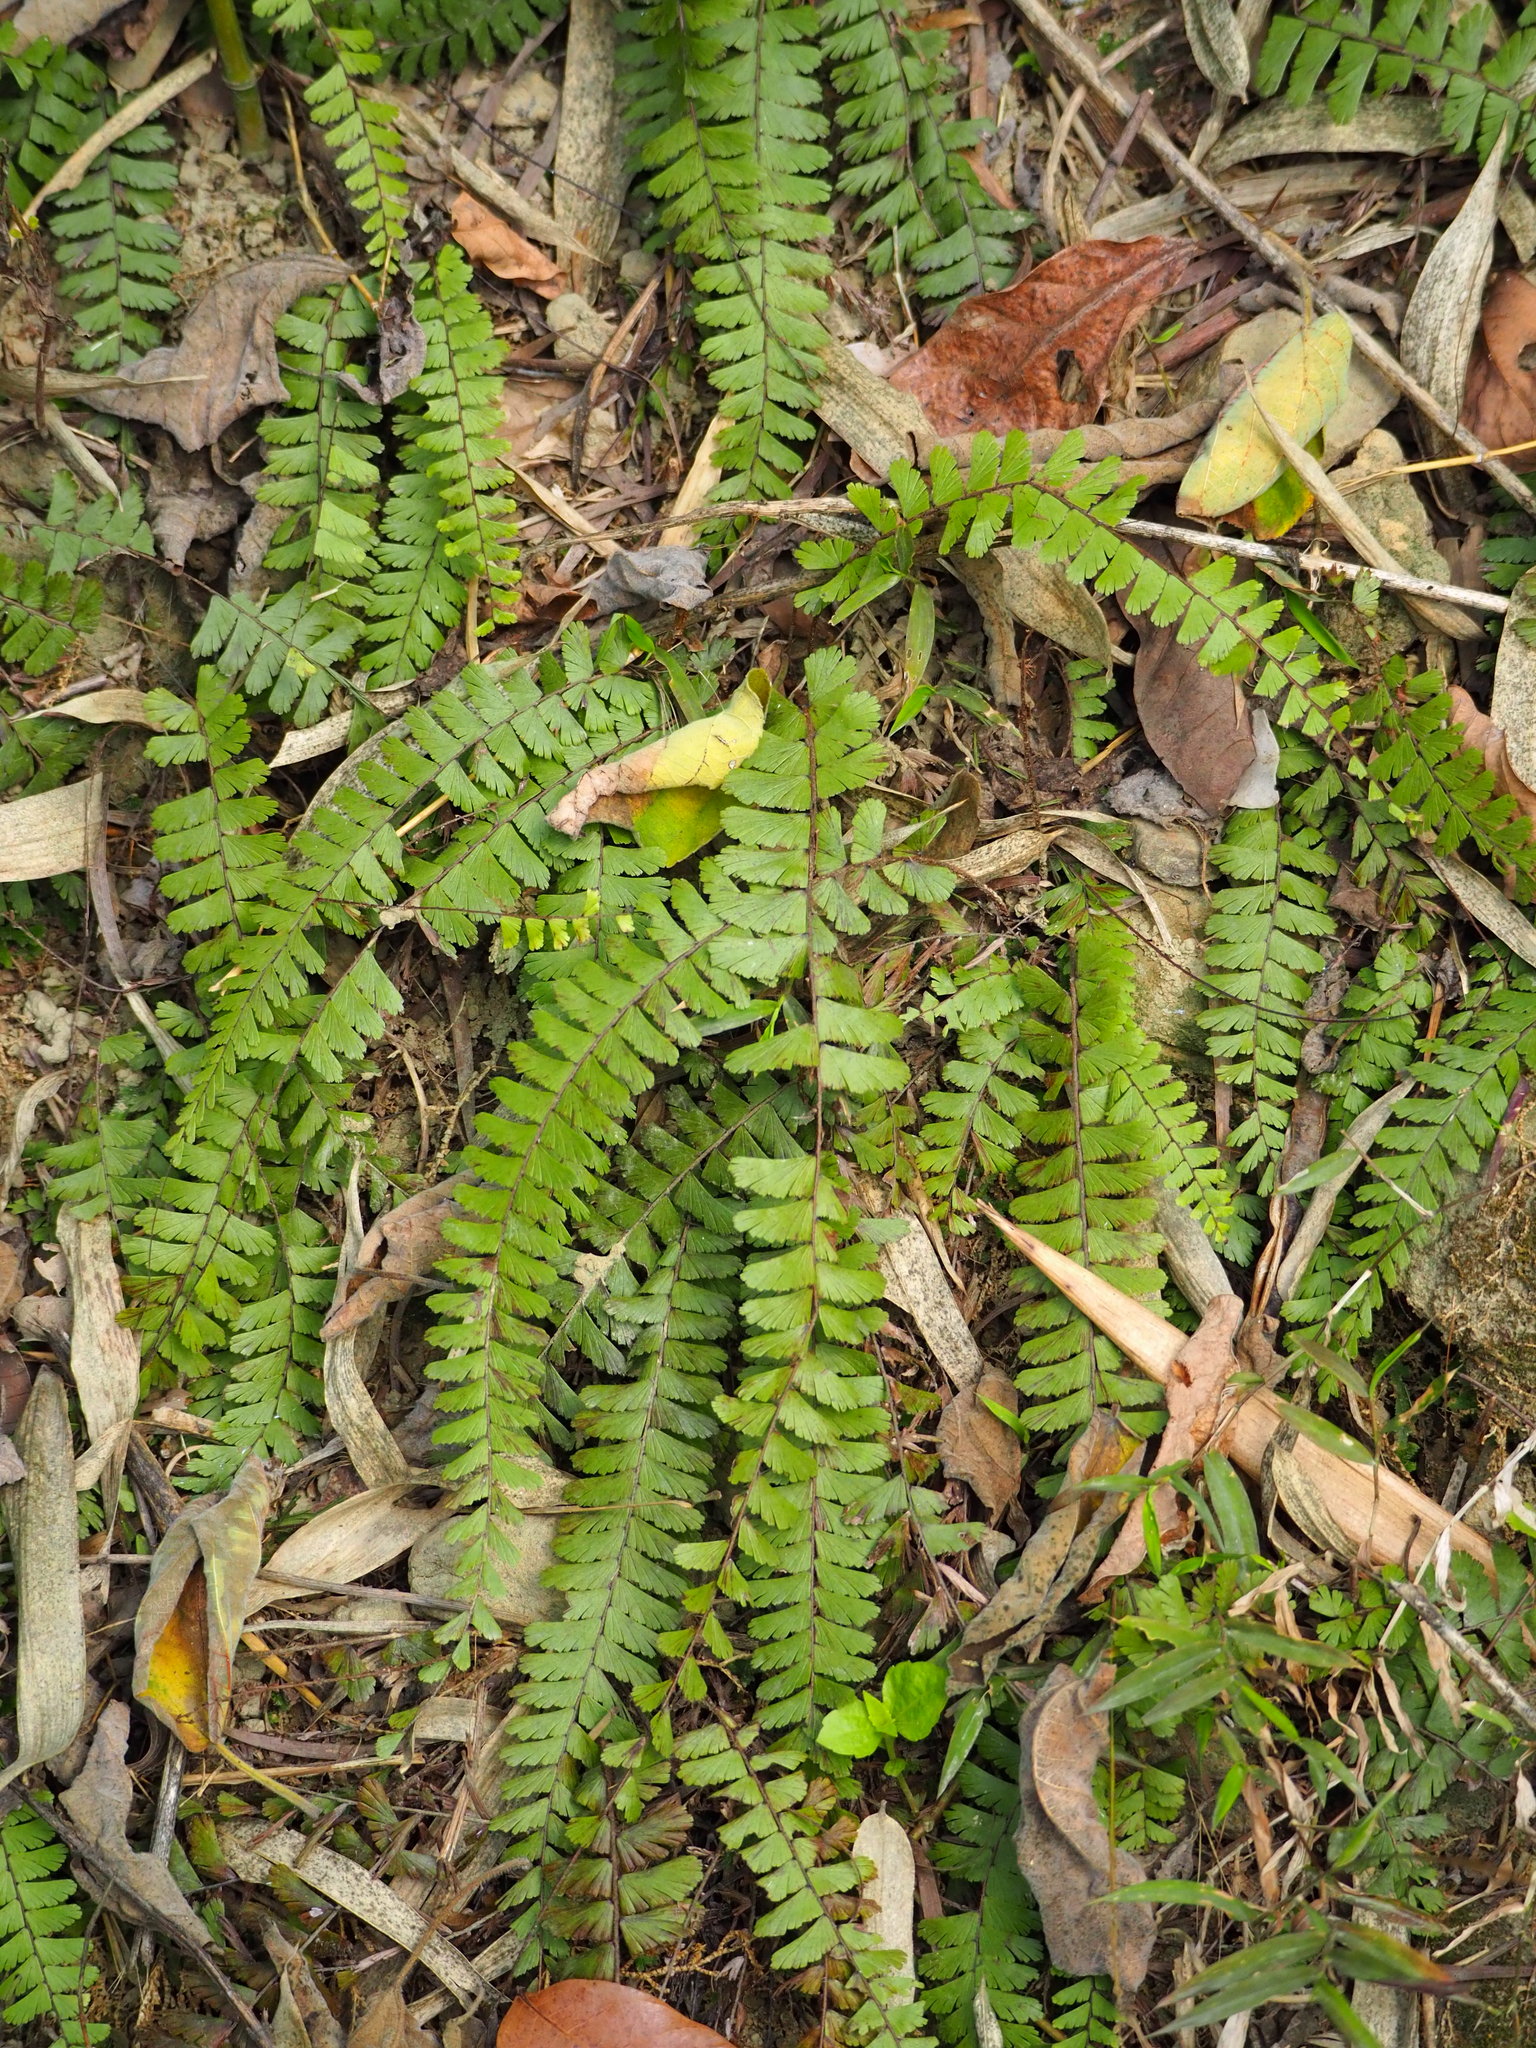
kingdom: Plantae
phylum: Tracheophyta
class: Polypodiopsida
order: Polypodiales
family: Pteridaceae
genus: Adiantum
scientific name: Adiantum caudatum
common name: Tailed maidenhair
